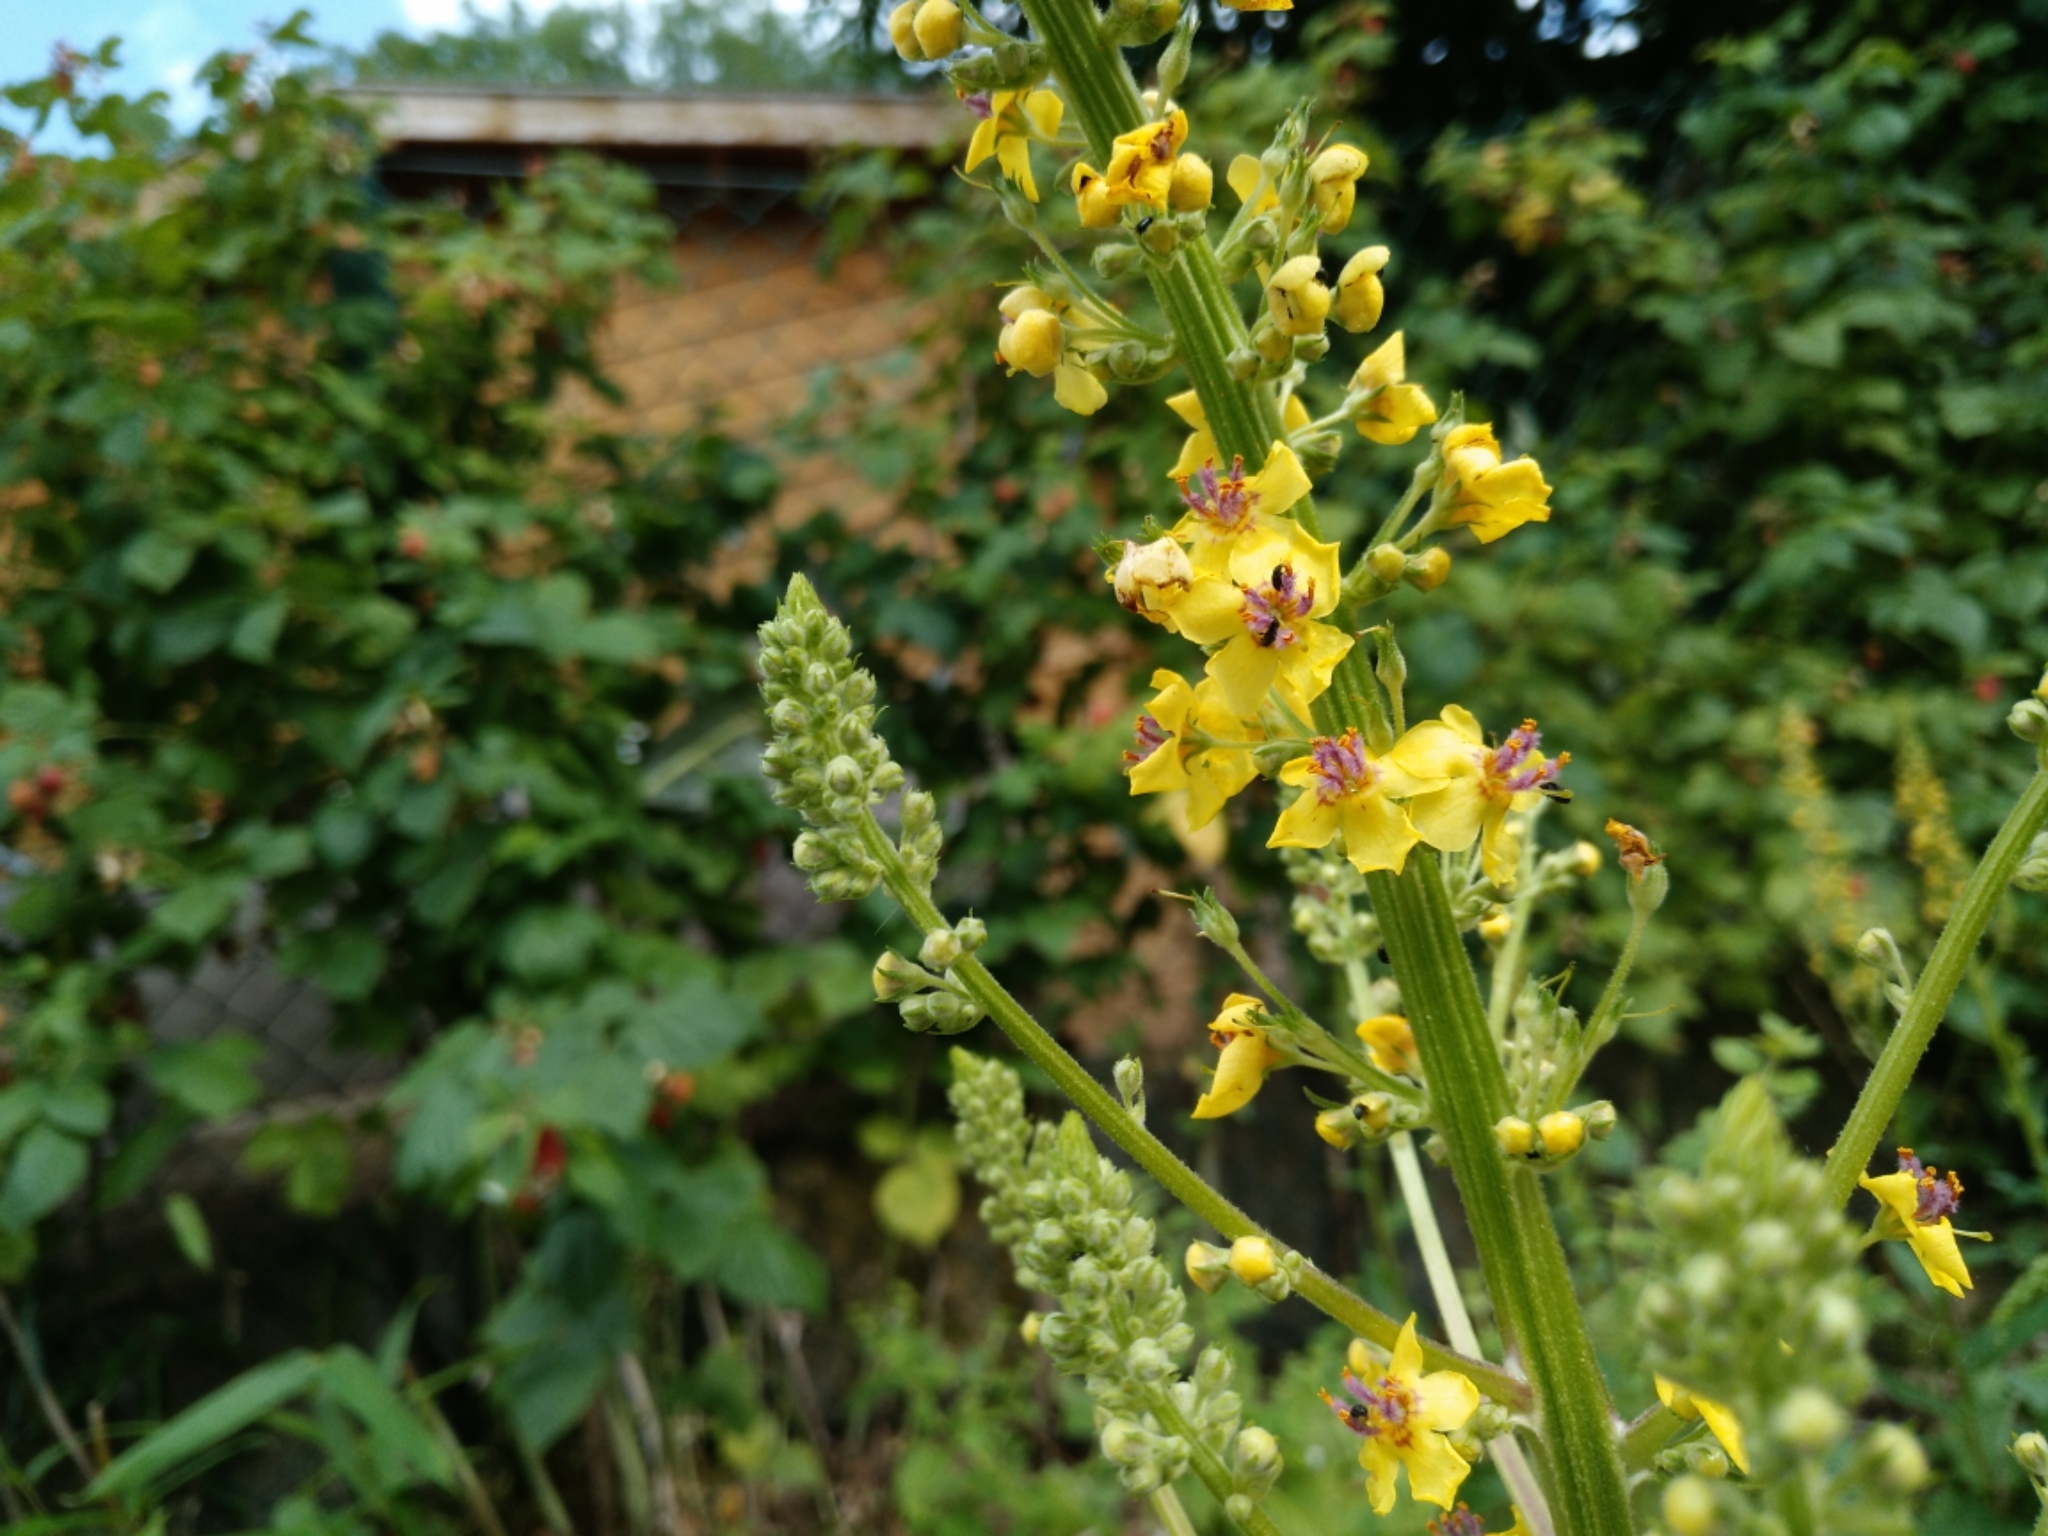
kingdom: Plantae
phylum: Tracheophyta
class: Magnoliopsida
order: Lamiales
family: Scrophulariaceae
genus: Verbascum
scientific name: Verbascum nigrum
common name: Dark mullein
